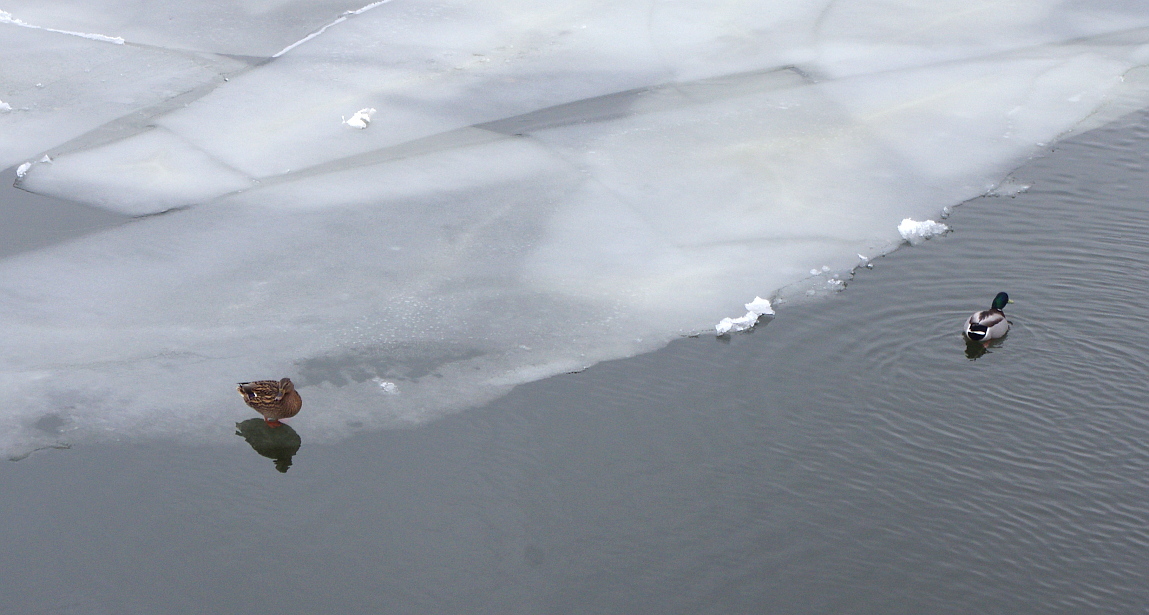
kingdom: Animalia
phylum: Chordata
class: Aves
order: Anseriformes
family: Anatidae
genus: Anas
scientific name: Anas platyrhynchos
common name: Mallard
